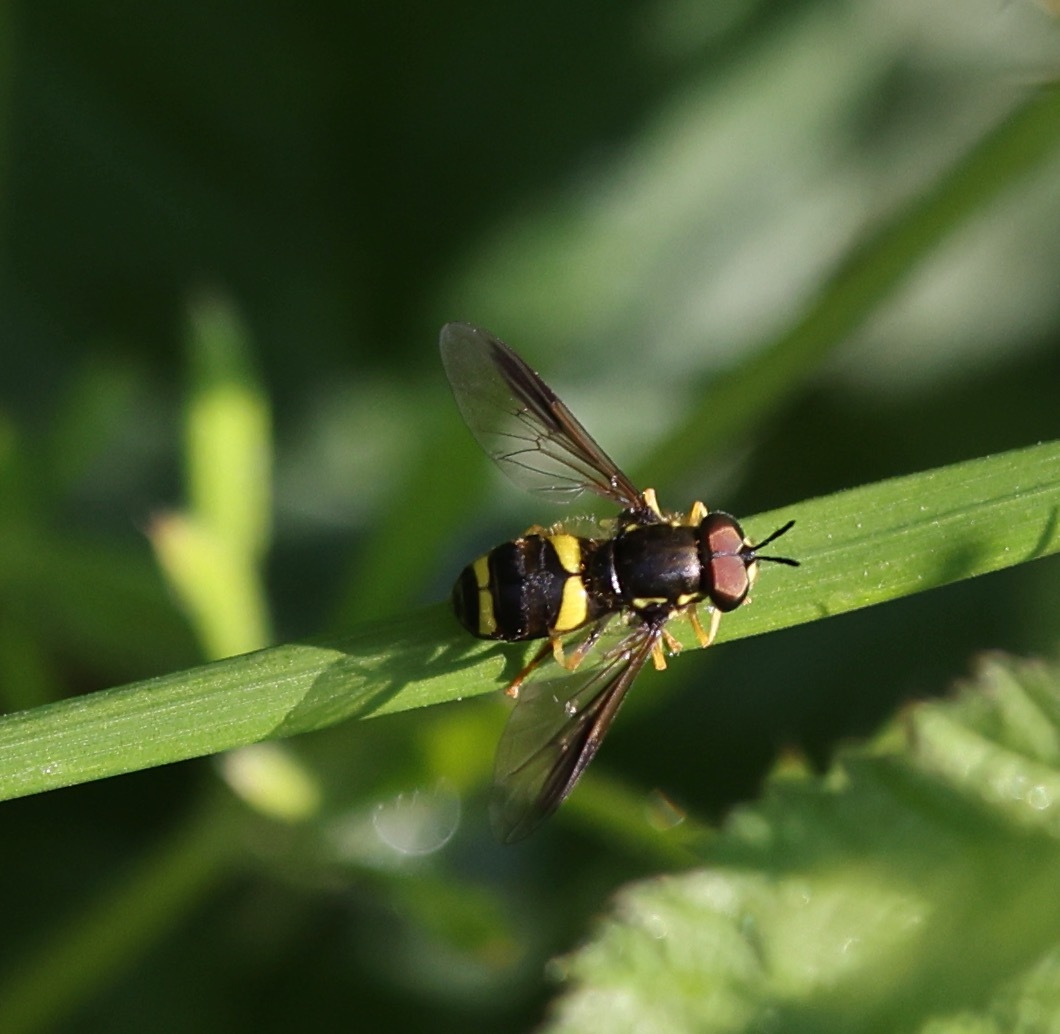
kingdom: Animalia
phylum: Arthropoda
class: Insecta
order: Diptera
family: Syrphidae
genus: Chrysotoxum
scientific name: Chrysotoxum bicincta
